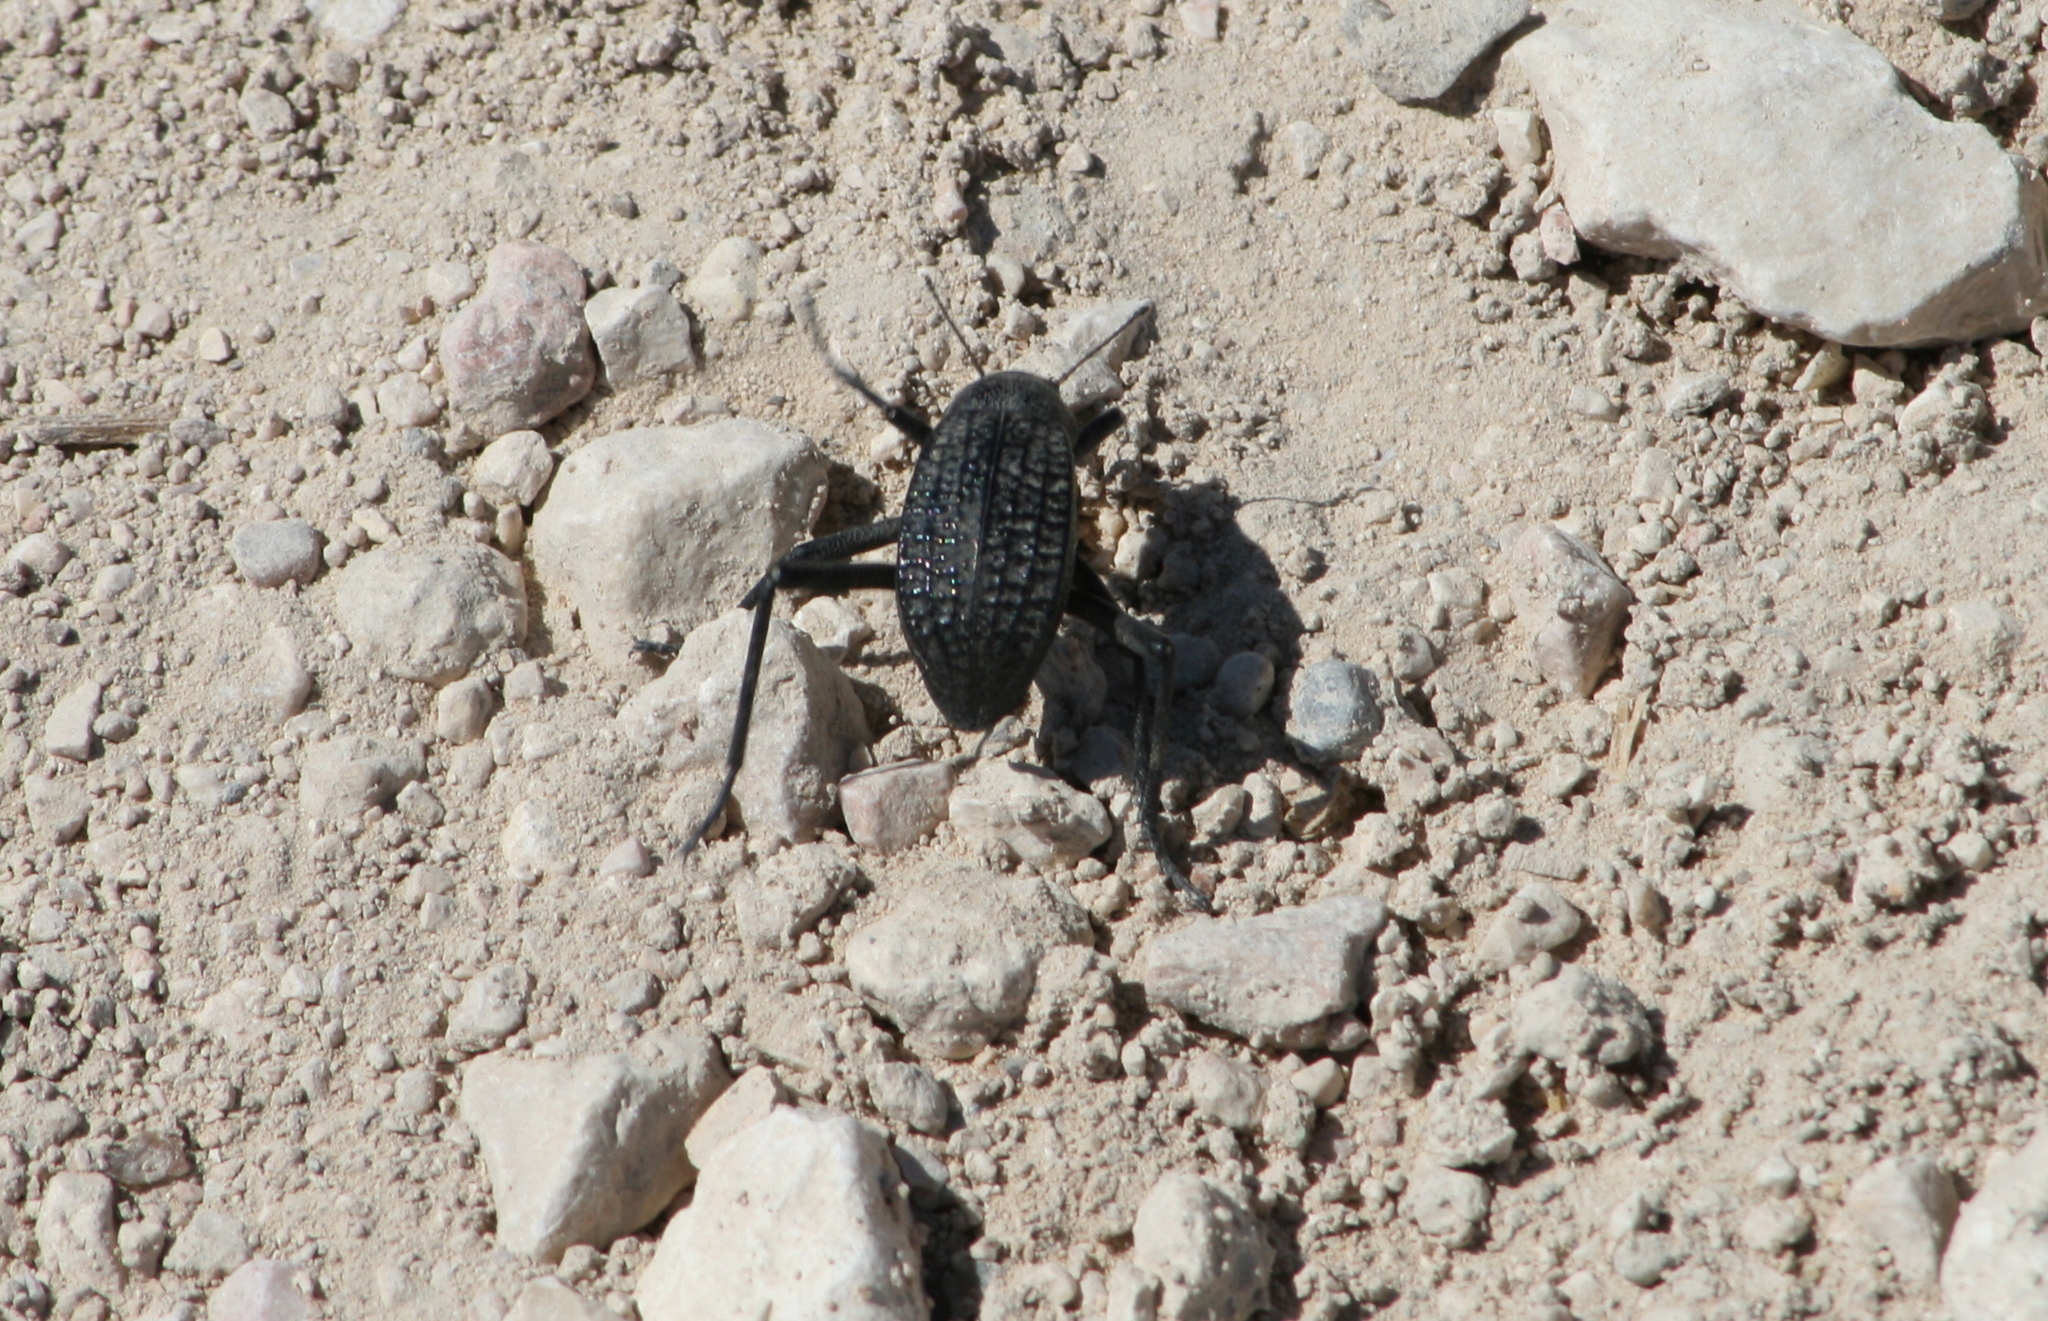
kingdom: Animalia
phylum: Arthropoda
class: Insecta
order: Coleoptera
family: Tenebrionidae
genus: Adesmia
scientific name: Adesmia cancellata
